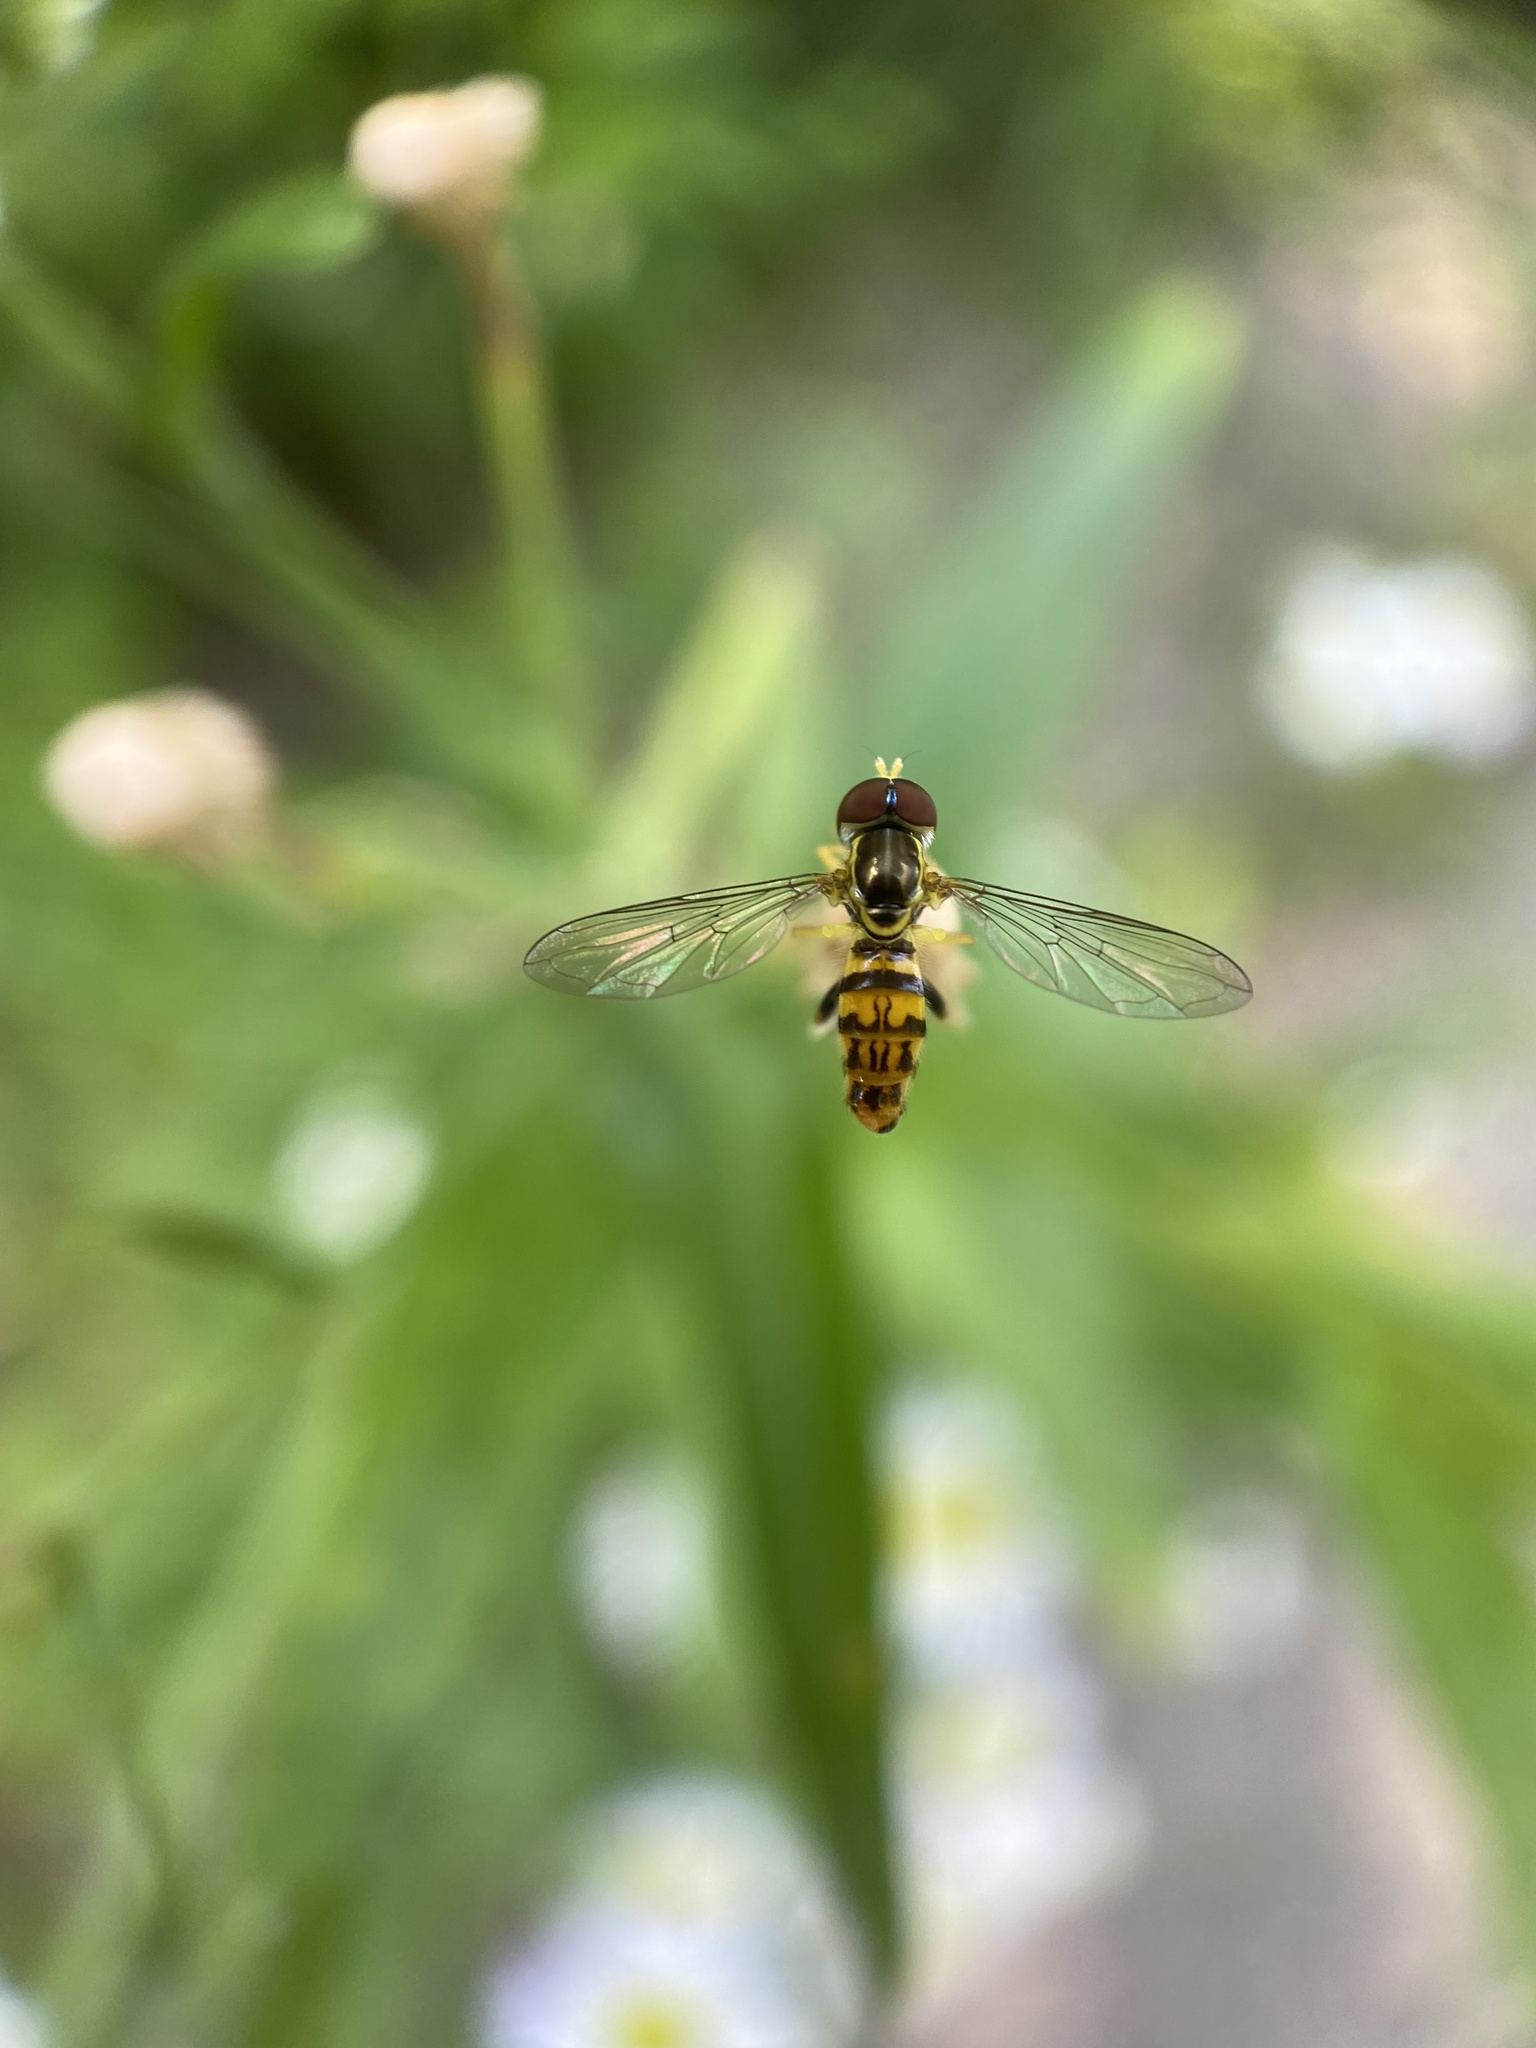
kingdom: Animalia
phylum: Arthropoda
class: Insecta
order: Diptera
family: Syrphidae
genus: Toxomerus
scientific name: Toxomerus geminatus
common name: Eastern calligrapher
